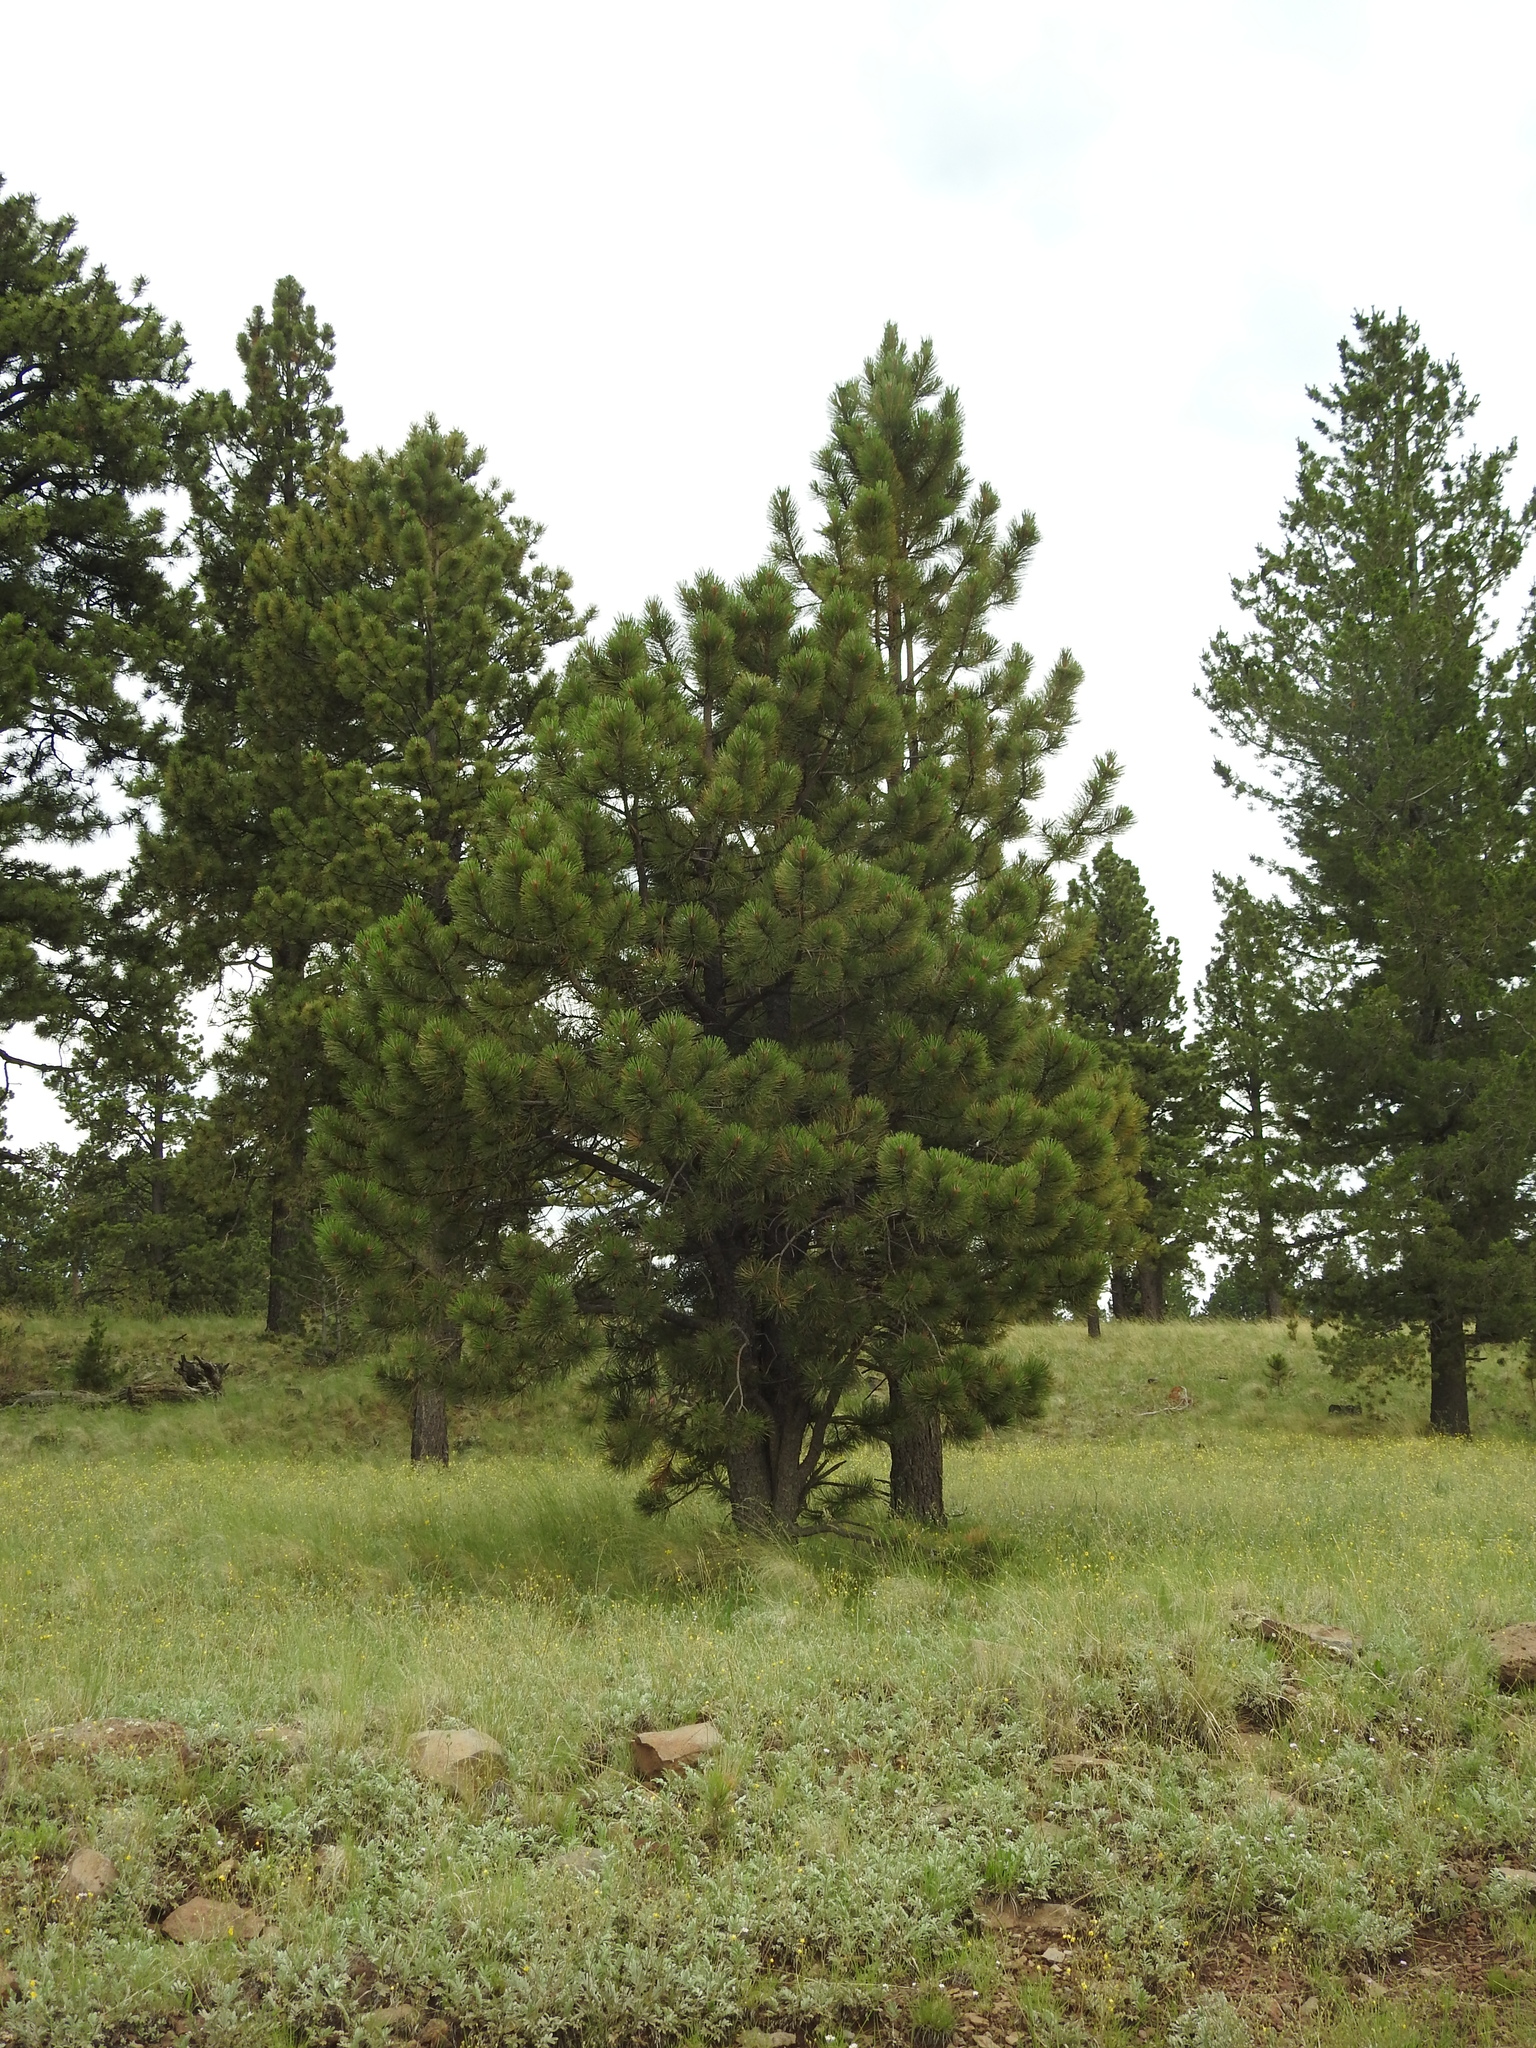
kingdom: Plantae
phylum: Tracheophyta
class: Pinopsida
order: Pinales
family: Pinaceae
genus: Pinus
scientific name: Pinus ponderosa
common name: Western yellow-pine
